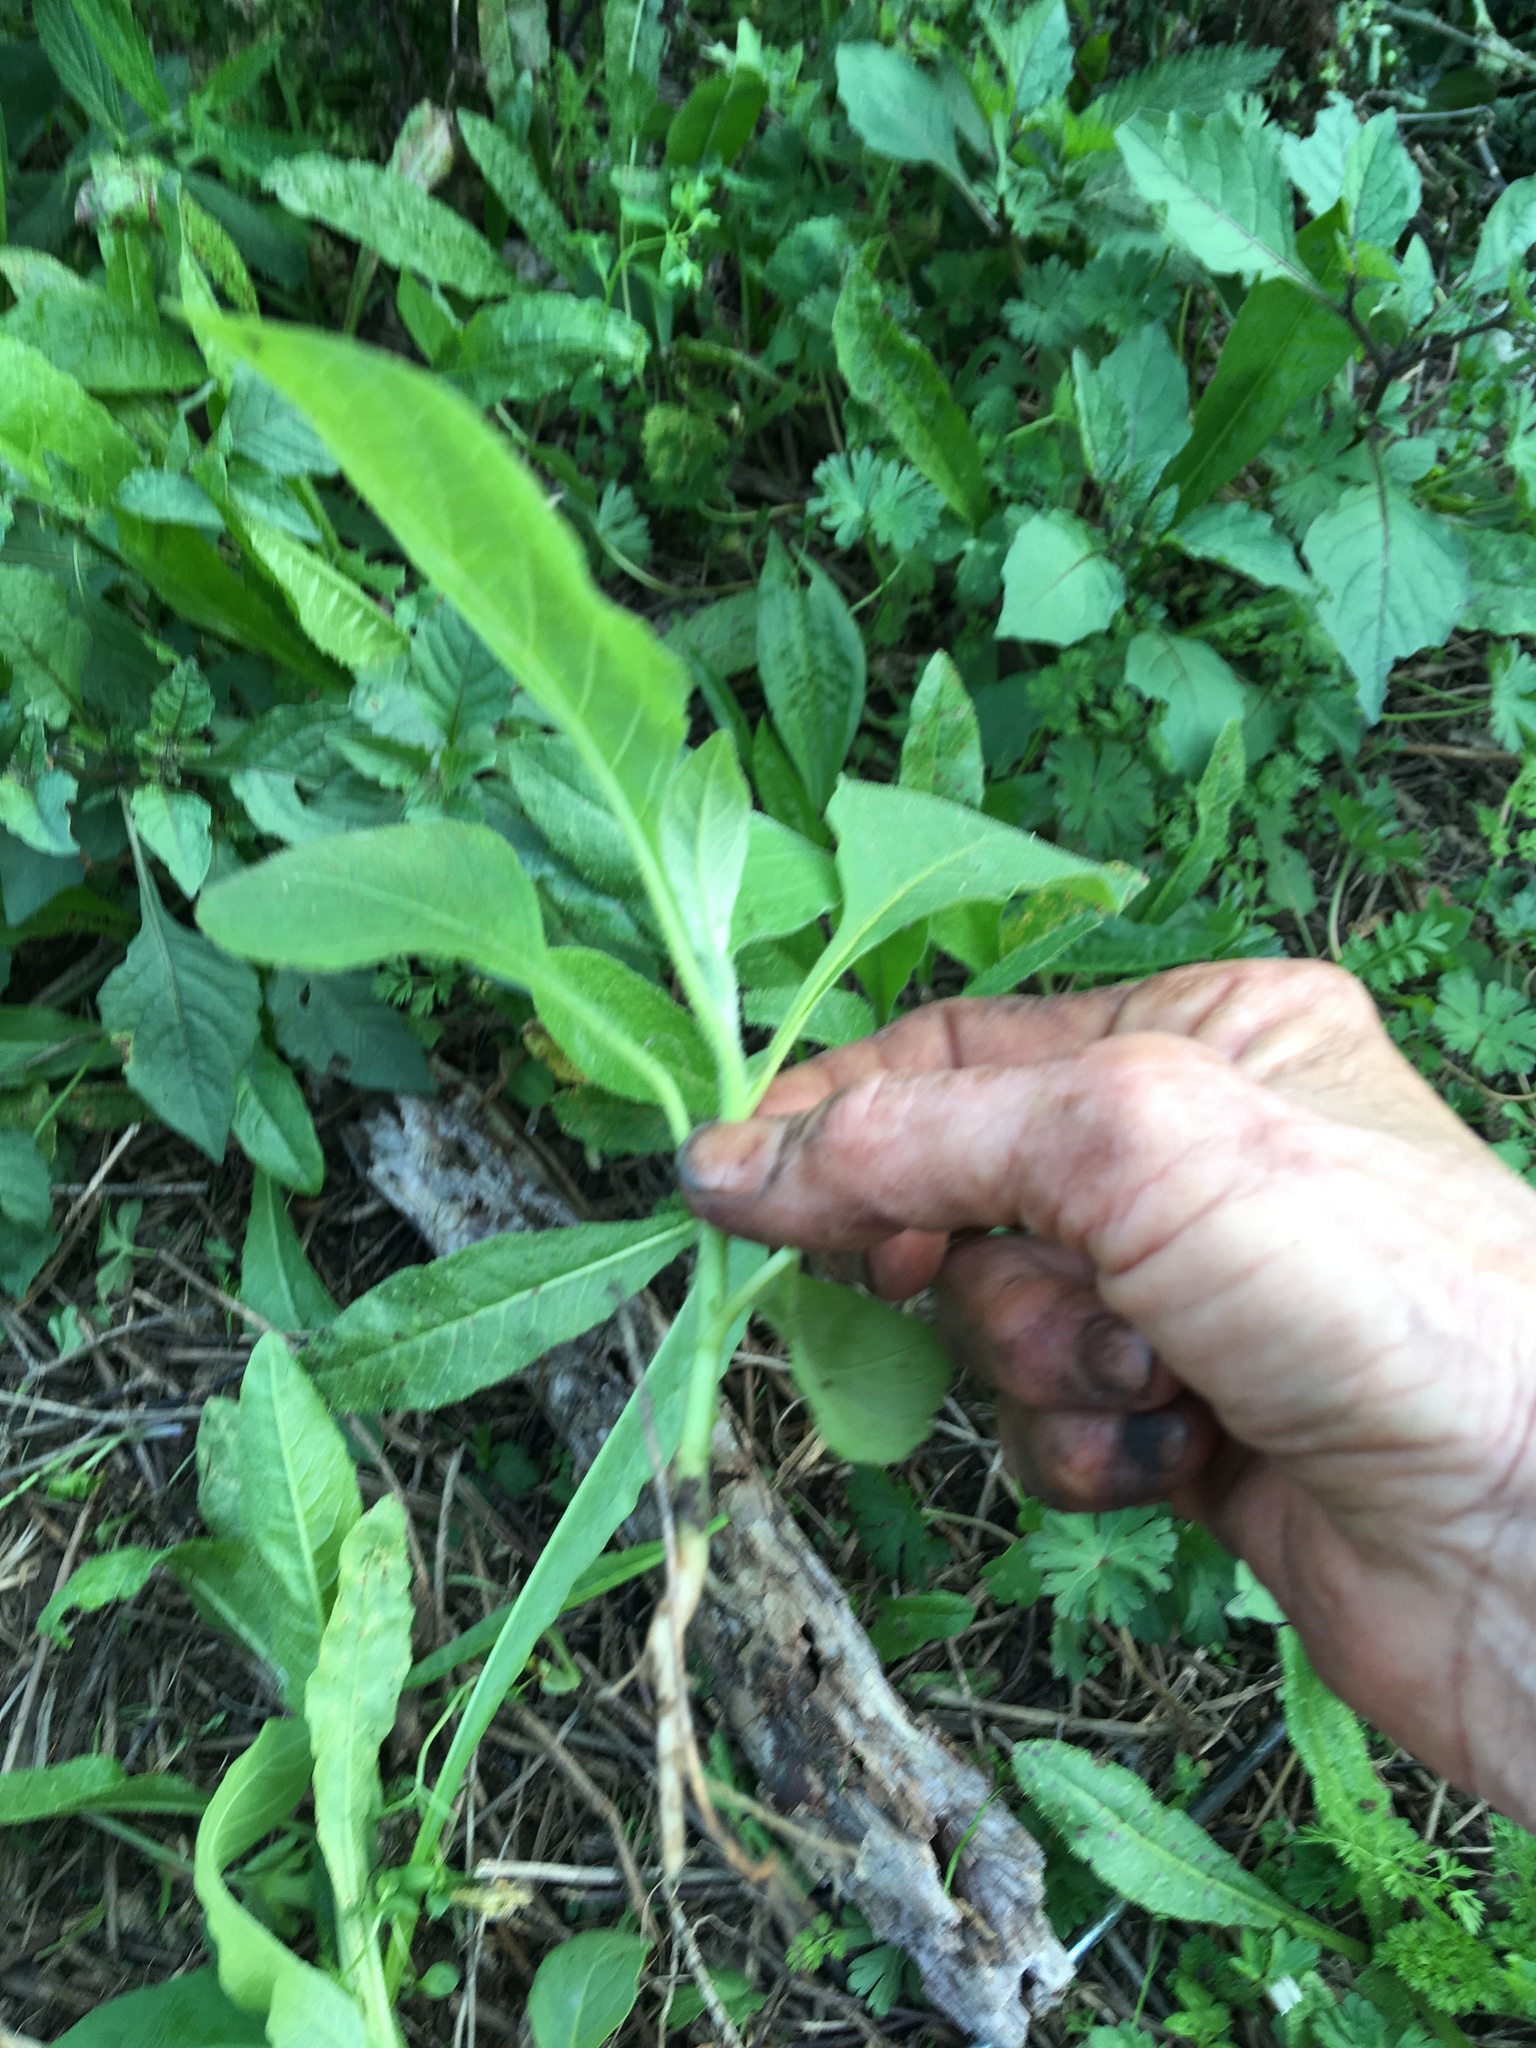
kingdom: Plantae
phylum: Tracheophyta
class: Magnoliopsida
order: Solanales
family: Solanaceae
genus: Solanum
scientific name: Solanum mauritianum
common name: Earleaf nightshade
